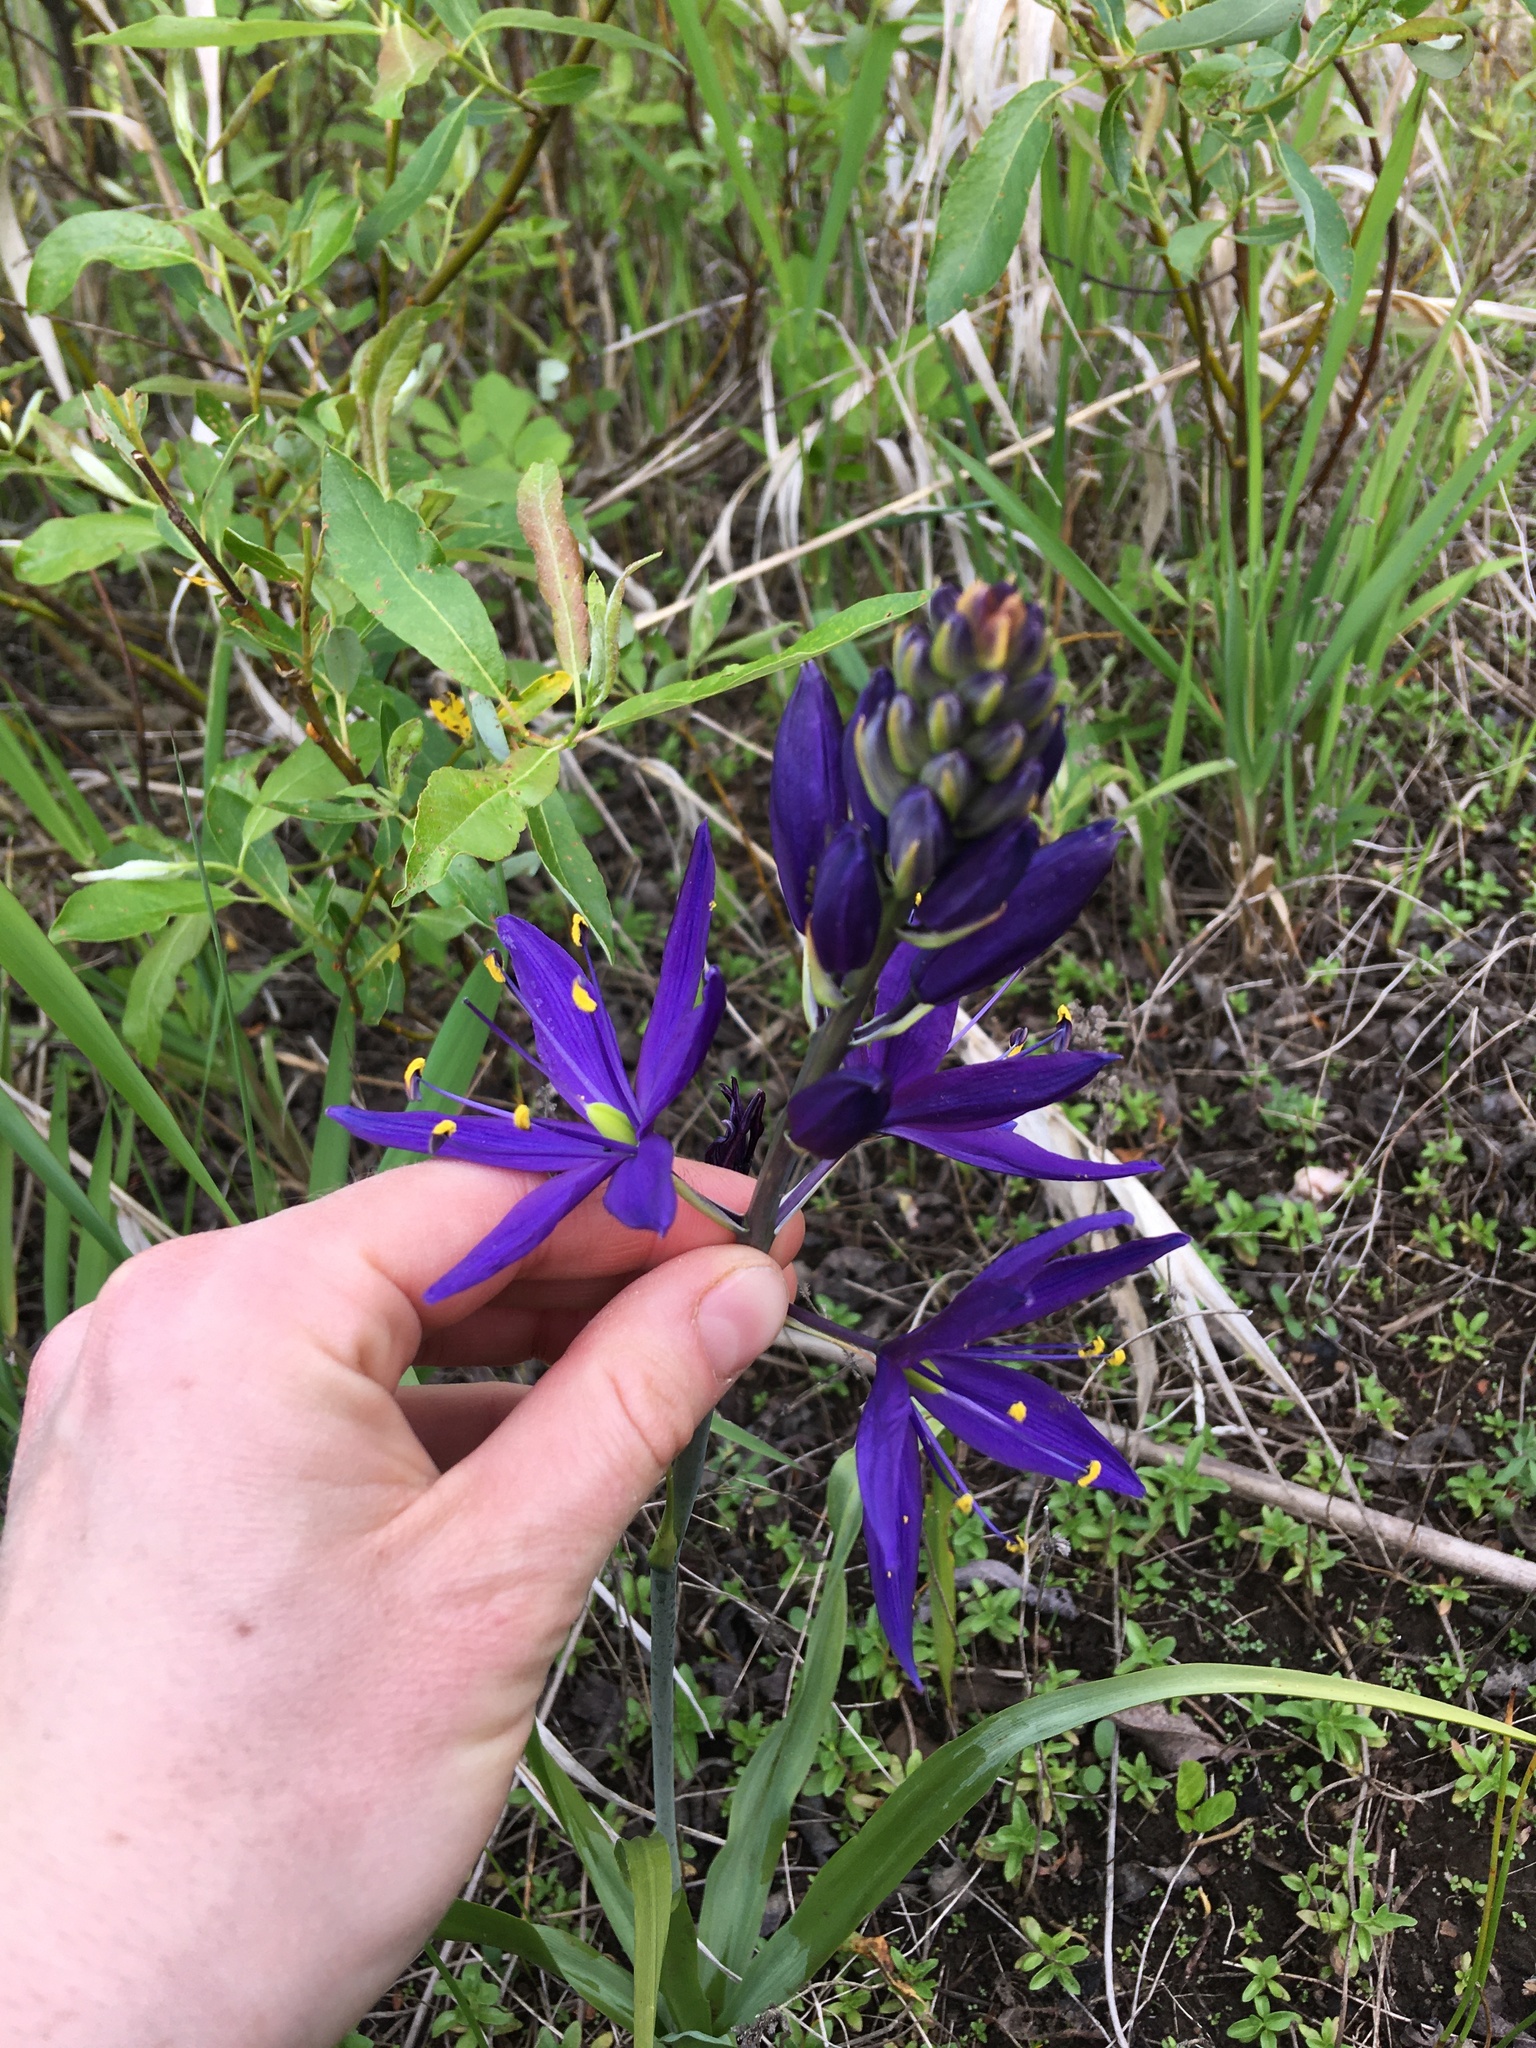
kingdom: Plantae
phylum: Tracheophyta
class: Liliopsida
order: Asparagales
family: Asparagaceae
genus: Camassia
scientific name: Camassia leichtlinii
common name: Leichtlin's camas
